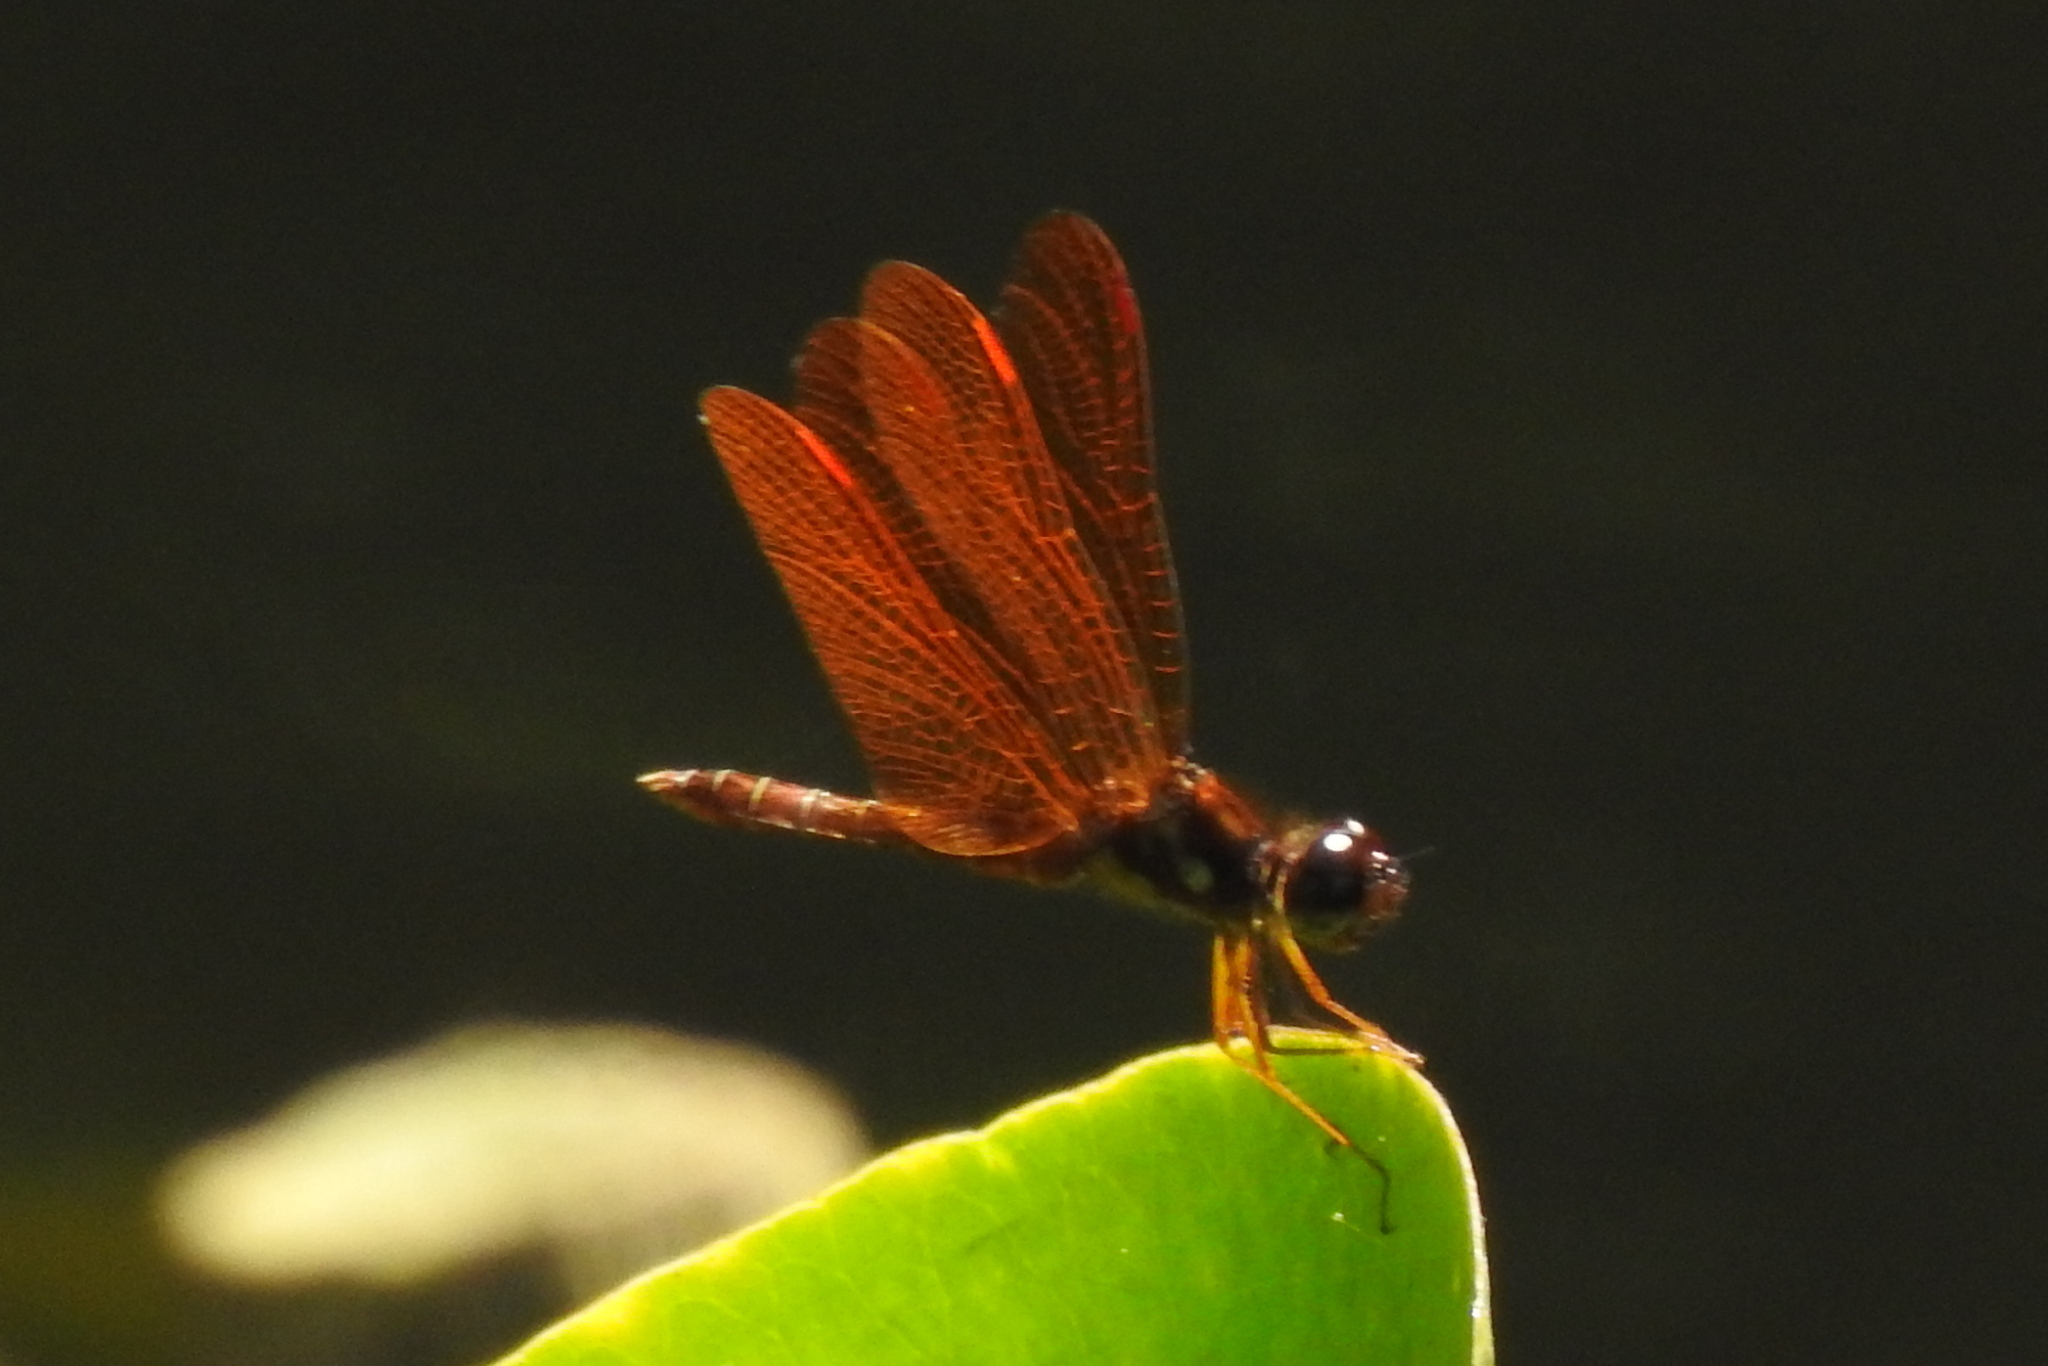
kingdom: Animalia
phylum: Arthropoda
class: Insecta
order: Odonata
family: Libellulidae
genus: Perithemis
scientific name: Perithemis tenera
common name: Eastern amberwing
